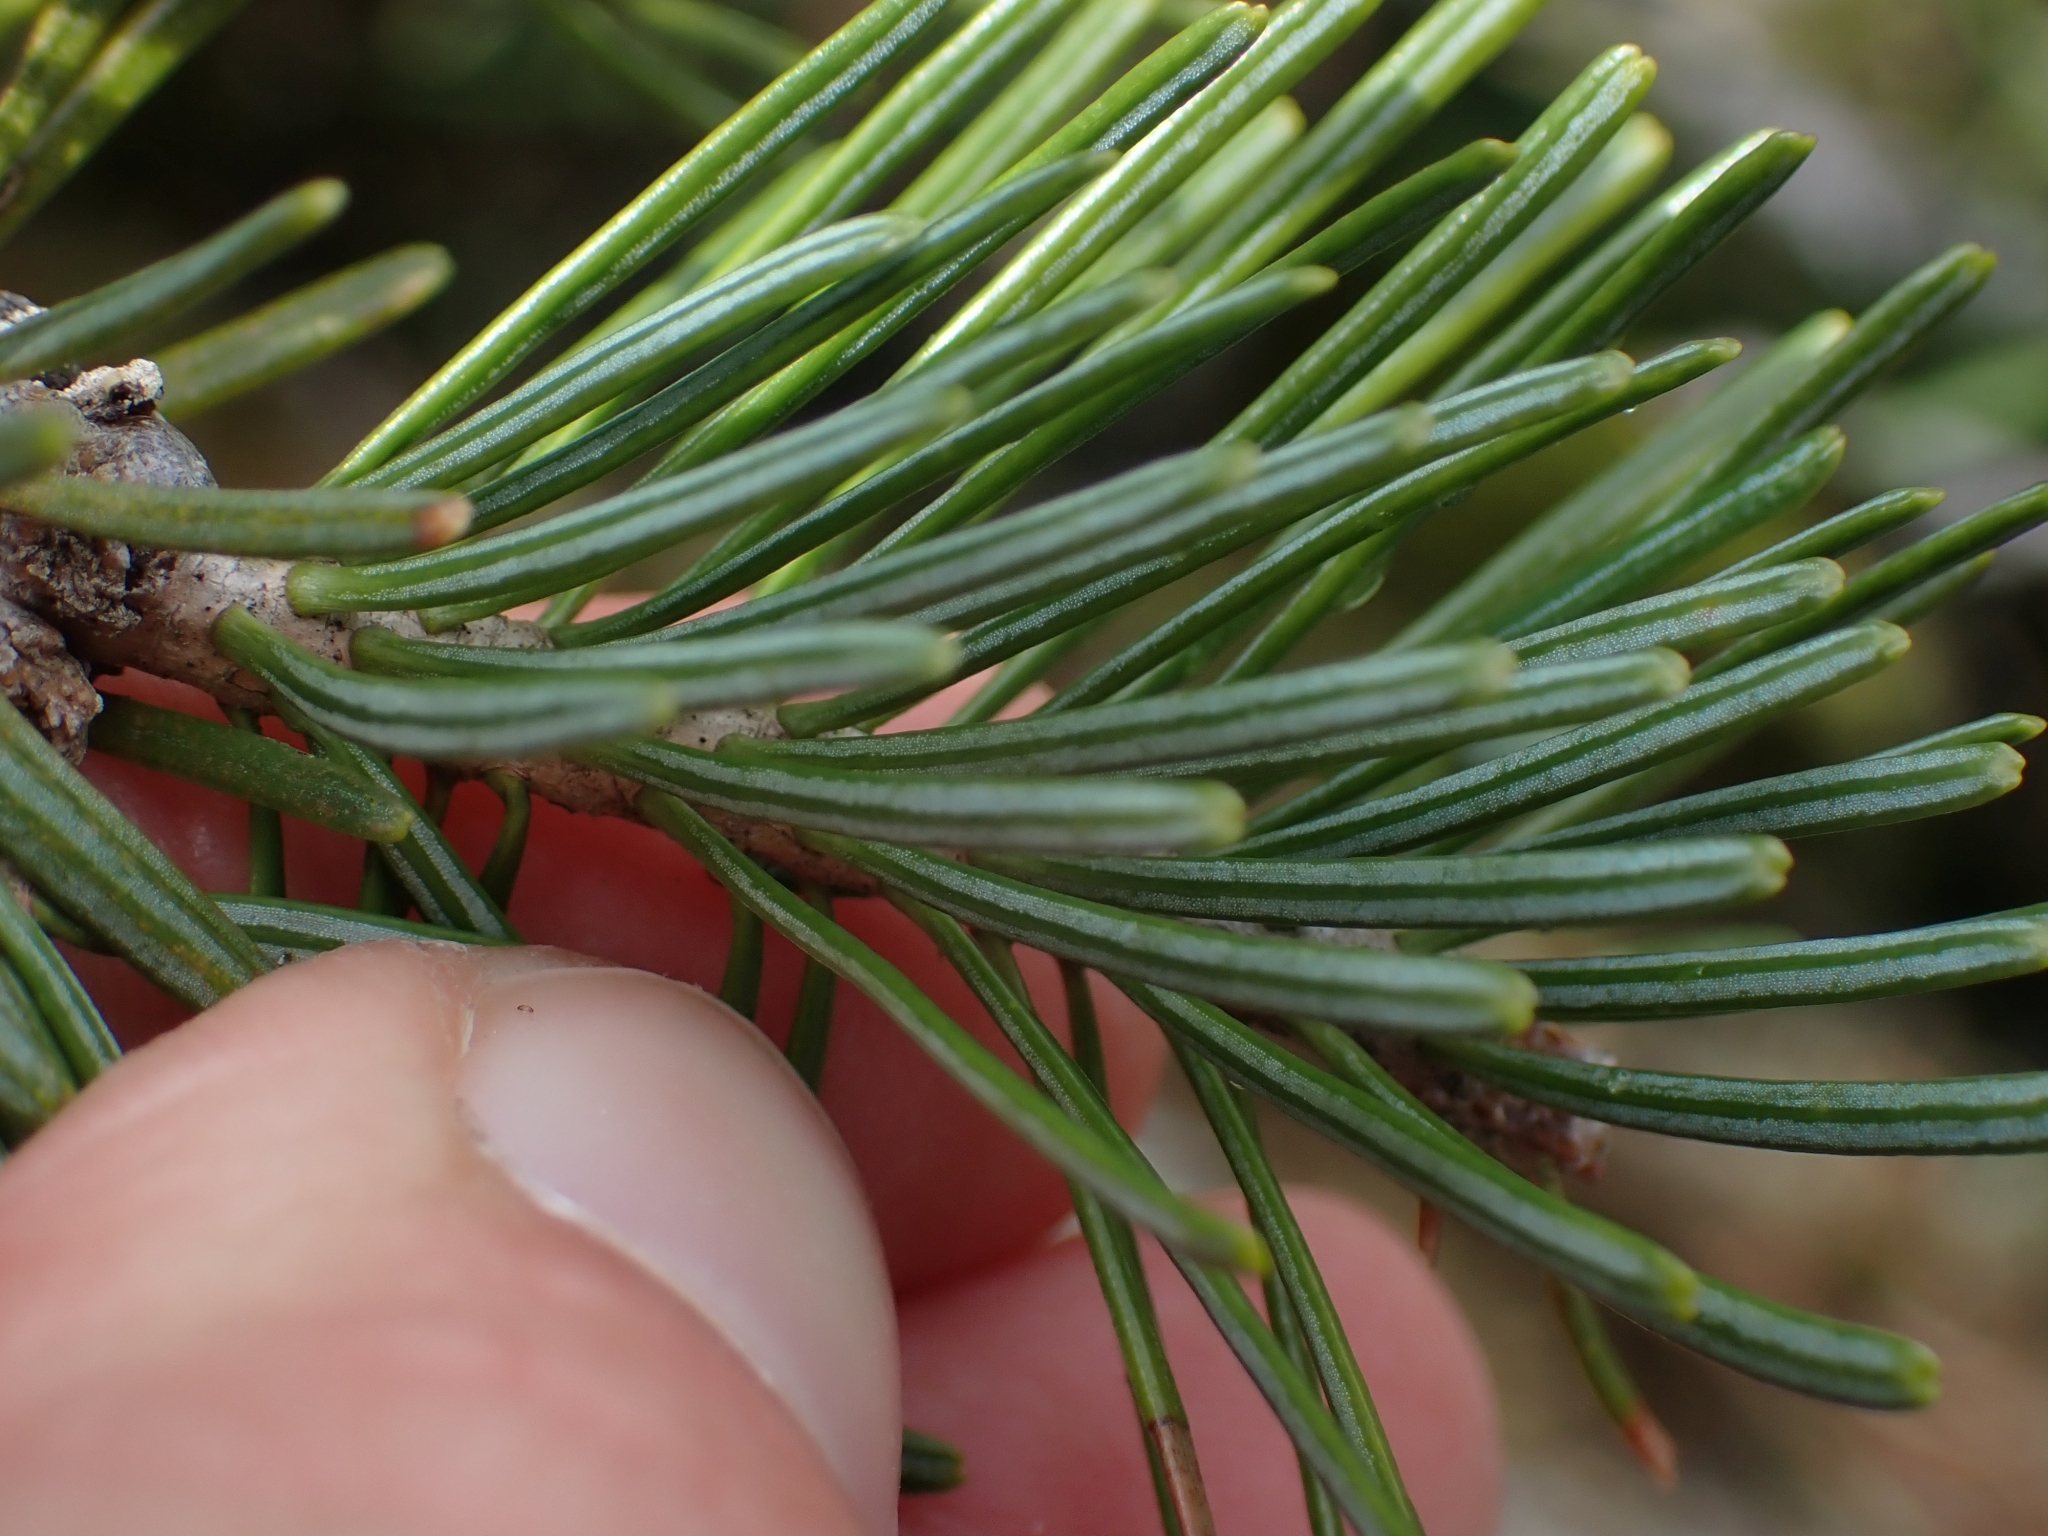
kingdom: Plantae
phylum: Tracheophyta
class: Pinopsida
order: Pinales
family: Pinaceae
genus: Abies
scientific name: Abies lasiocarpa
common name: Subalpine fir
